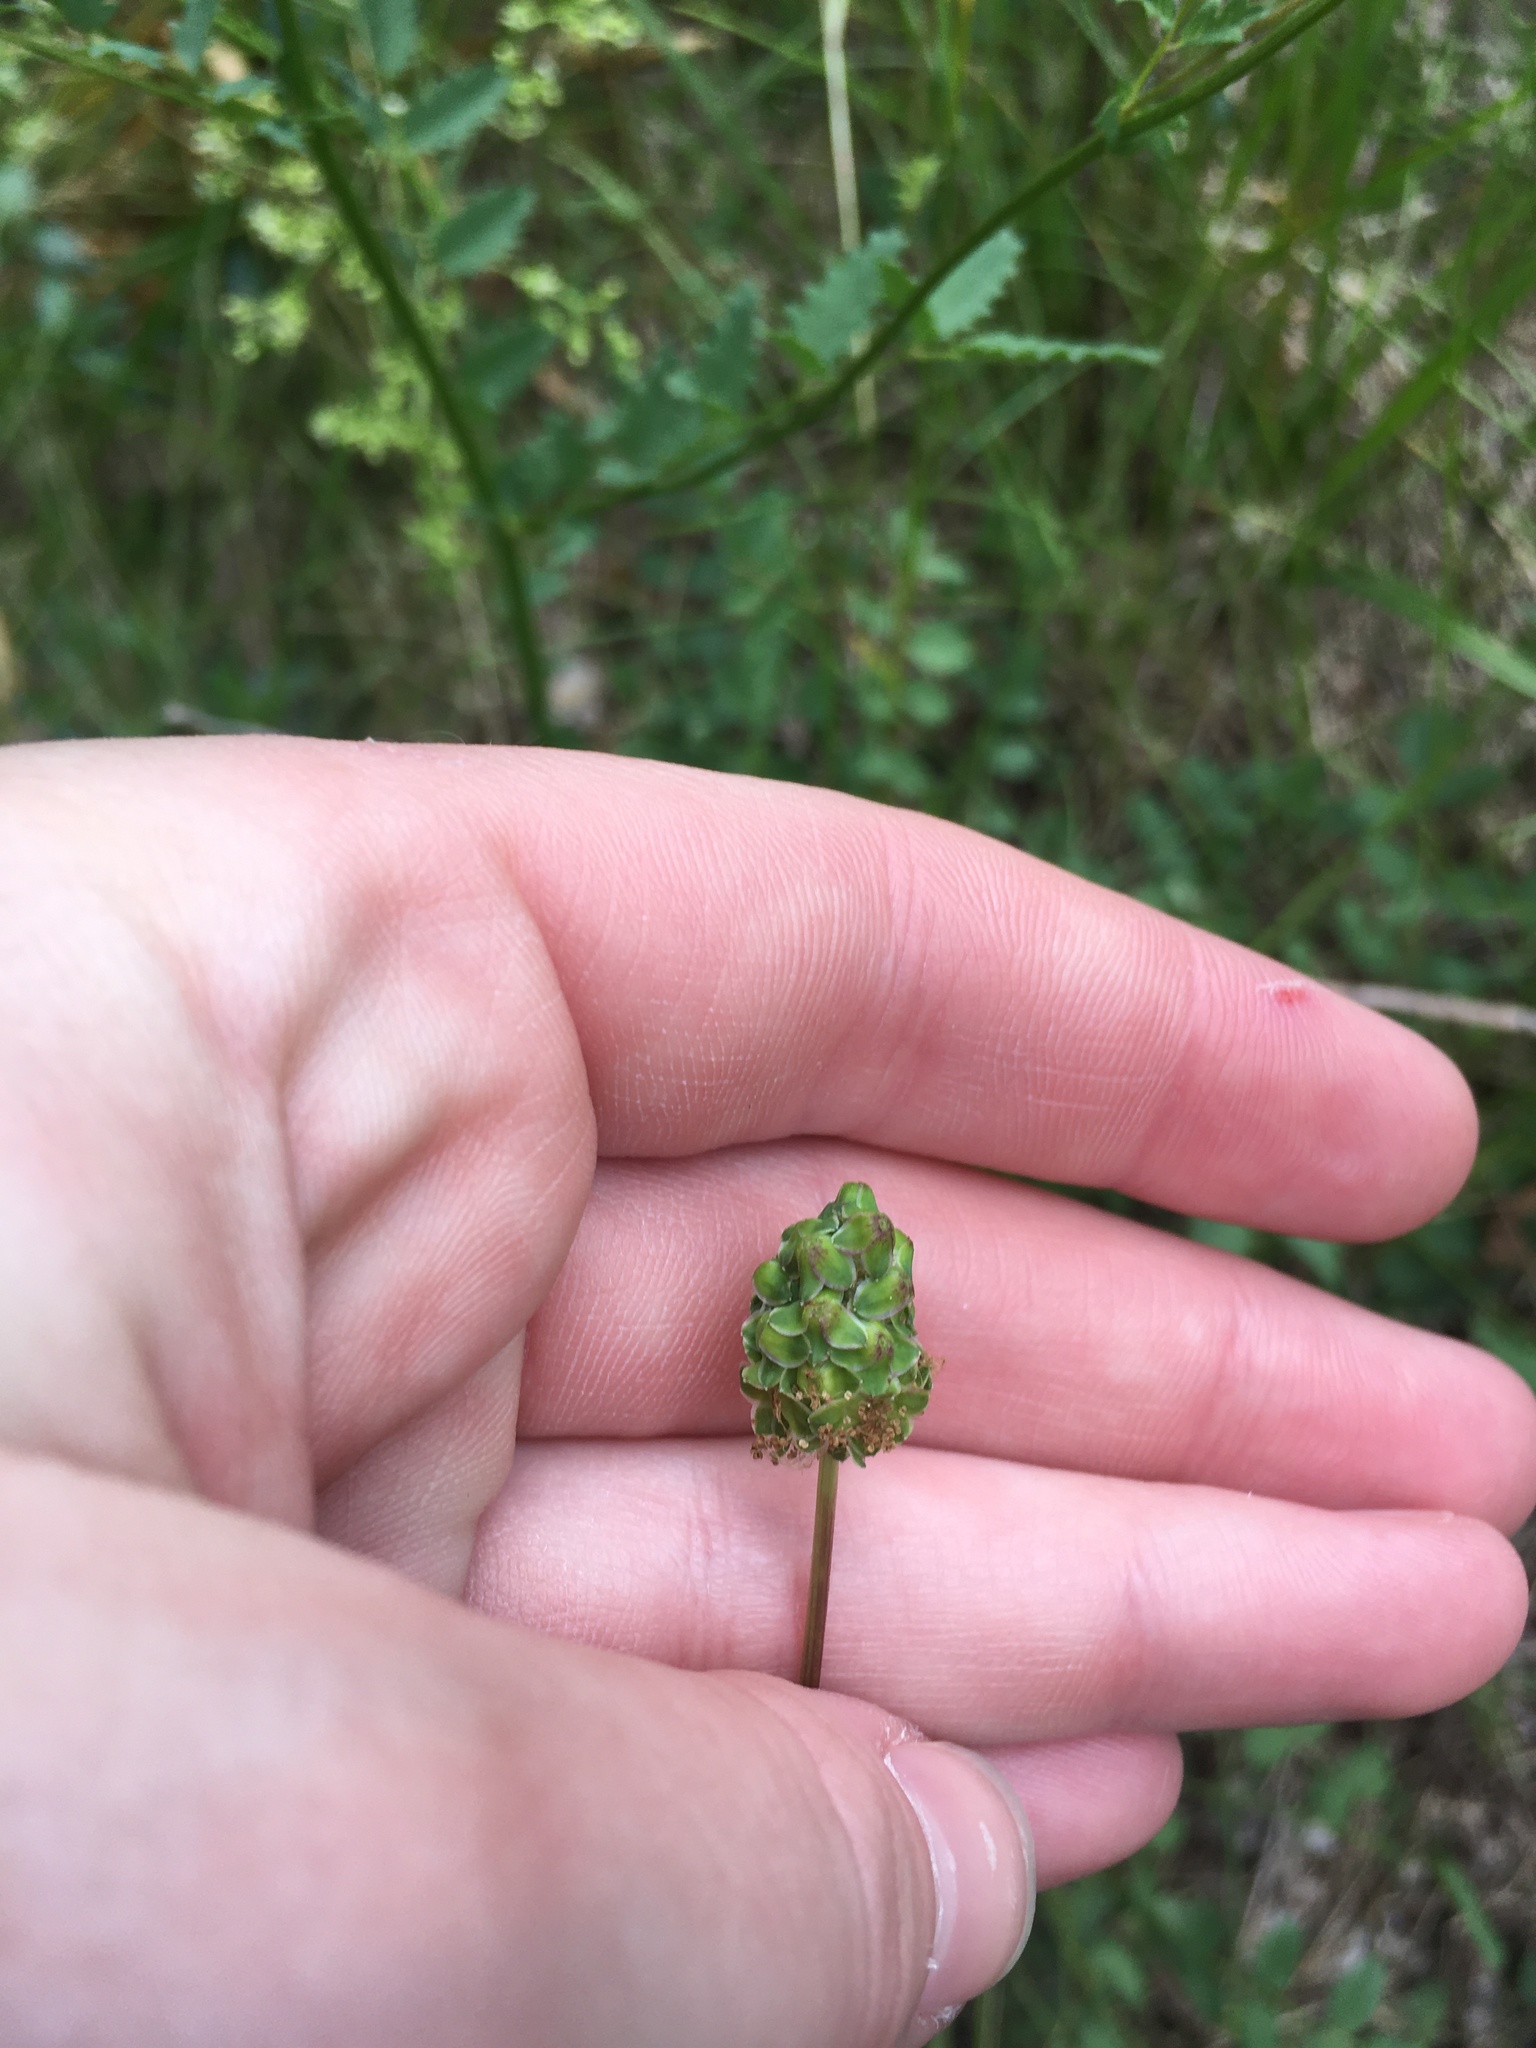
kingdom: Plantae
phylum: Tracheophyta
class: Magnoliopsida
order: Rosales
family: Rosaceae
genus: Poterium
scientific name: Poterium sanguisorba
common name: Salad burnet
